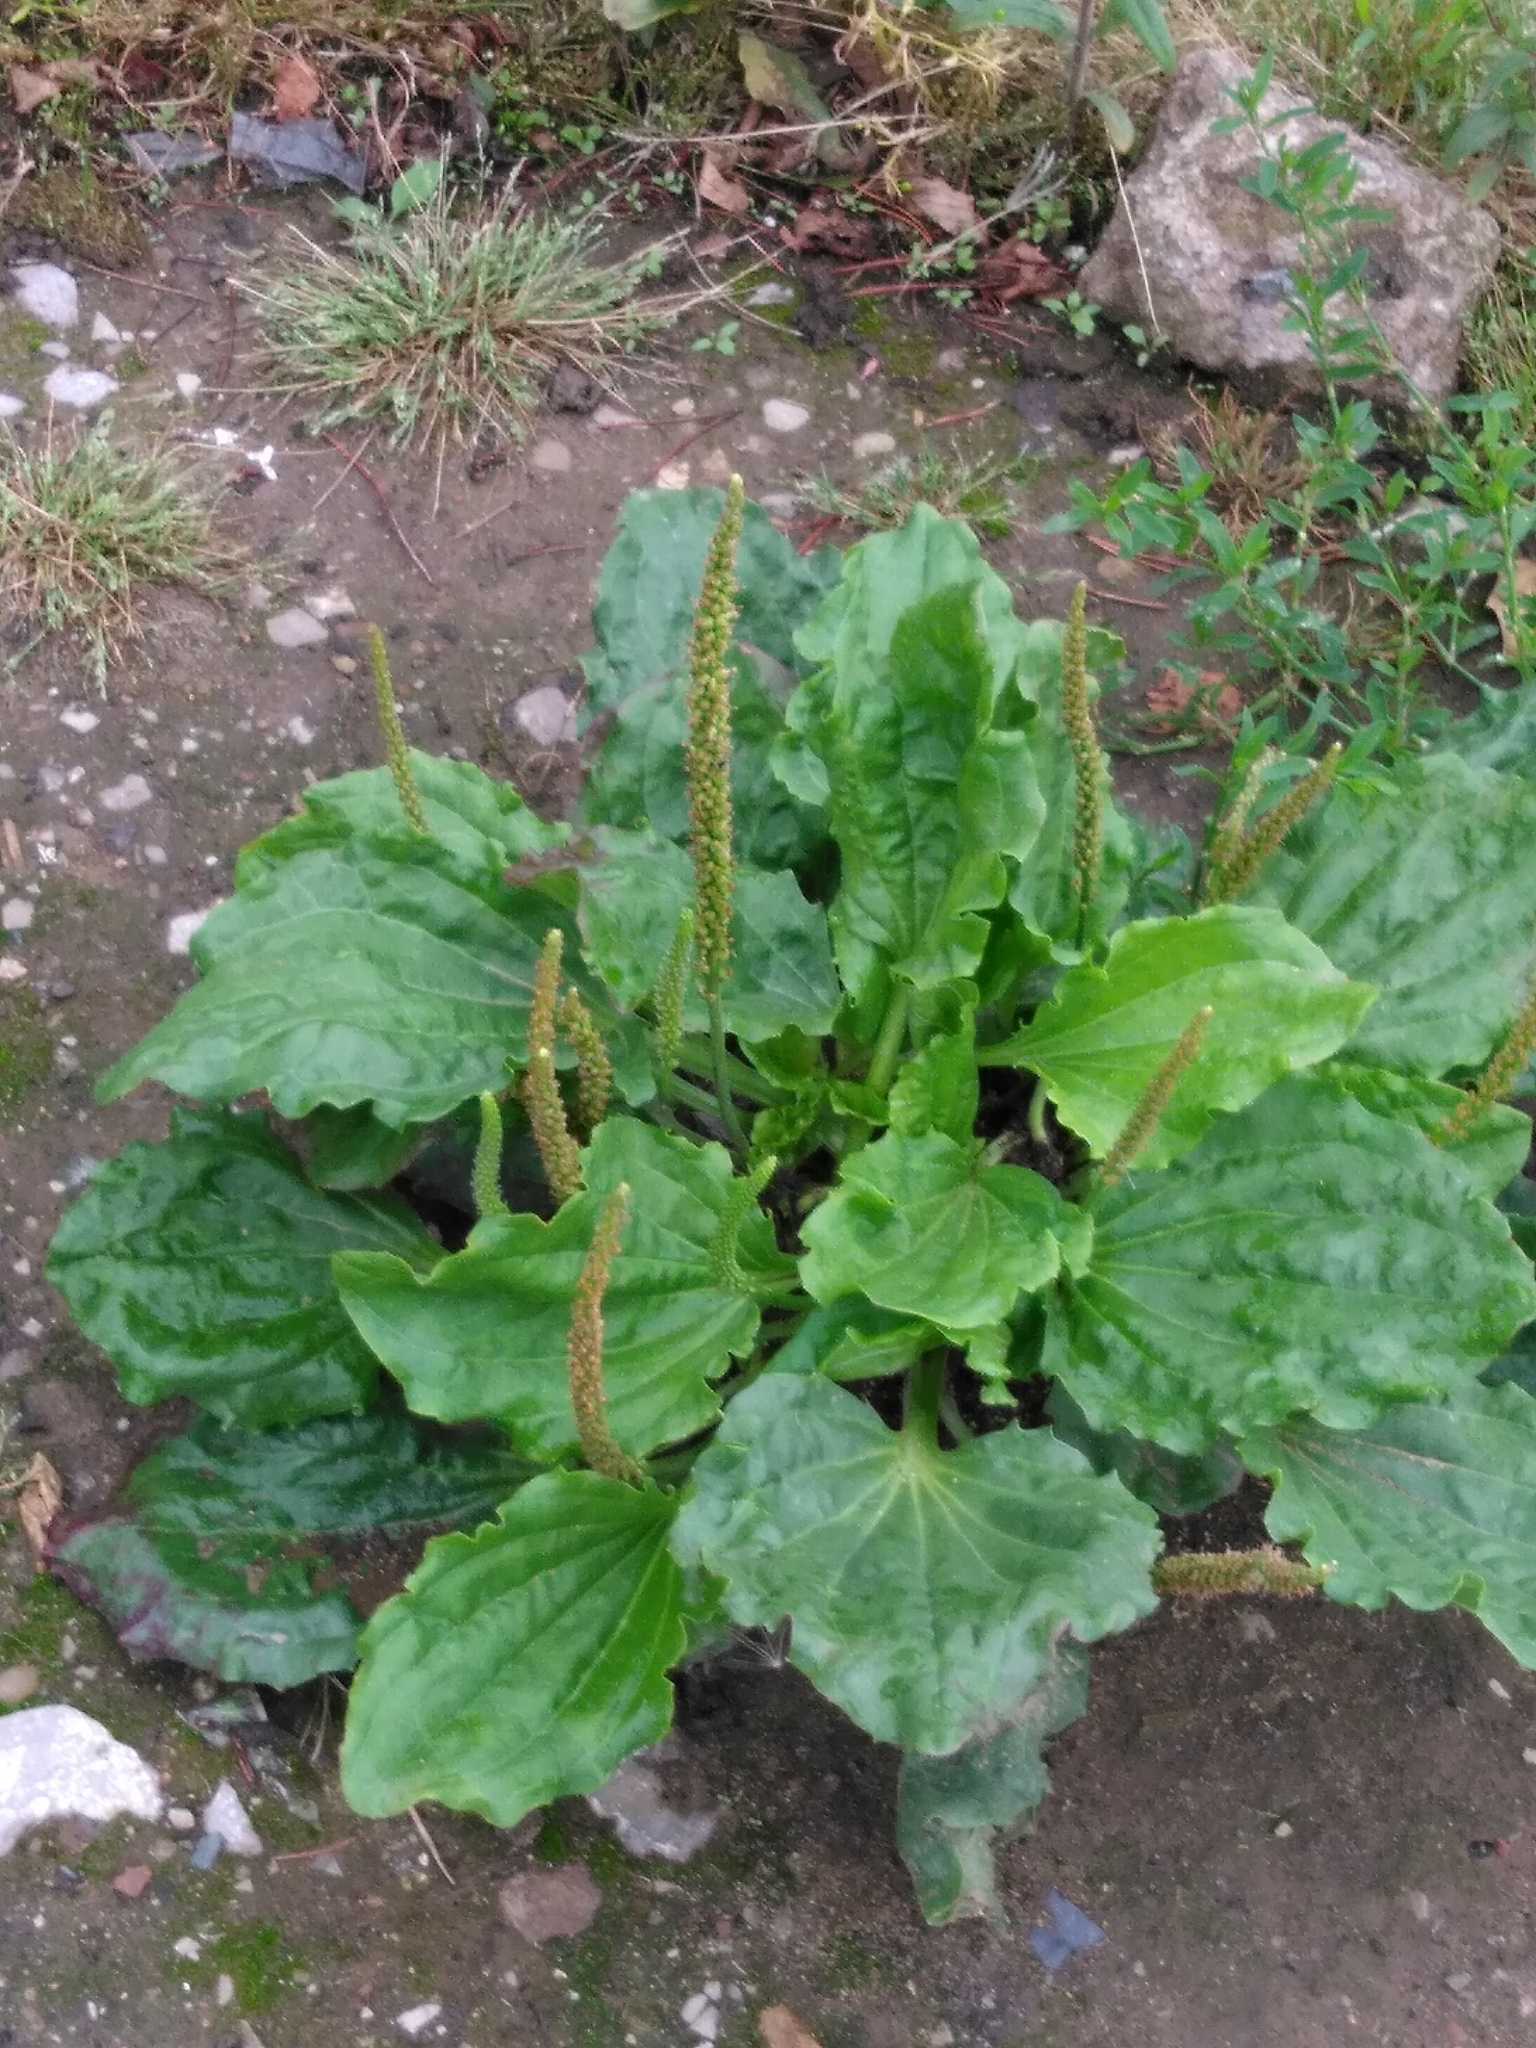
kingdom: Plantae
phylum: Tracheophyta
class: Magnoliopsida
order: Lamiales
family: Plantaginaceae
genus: Plantago
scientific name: Plantago major
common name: Common plantain
